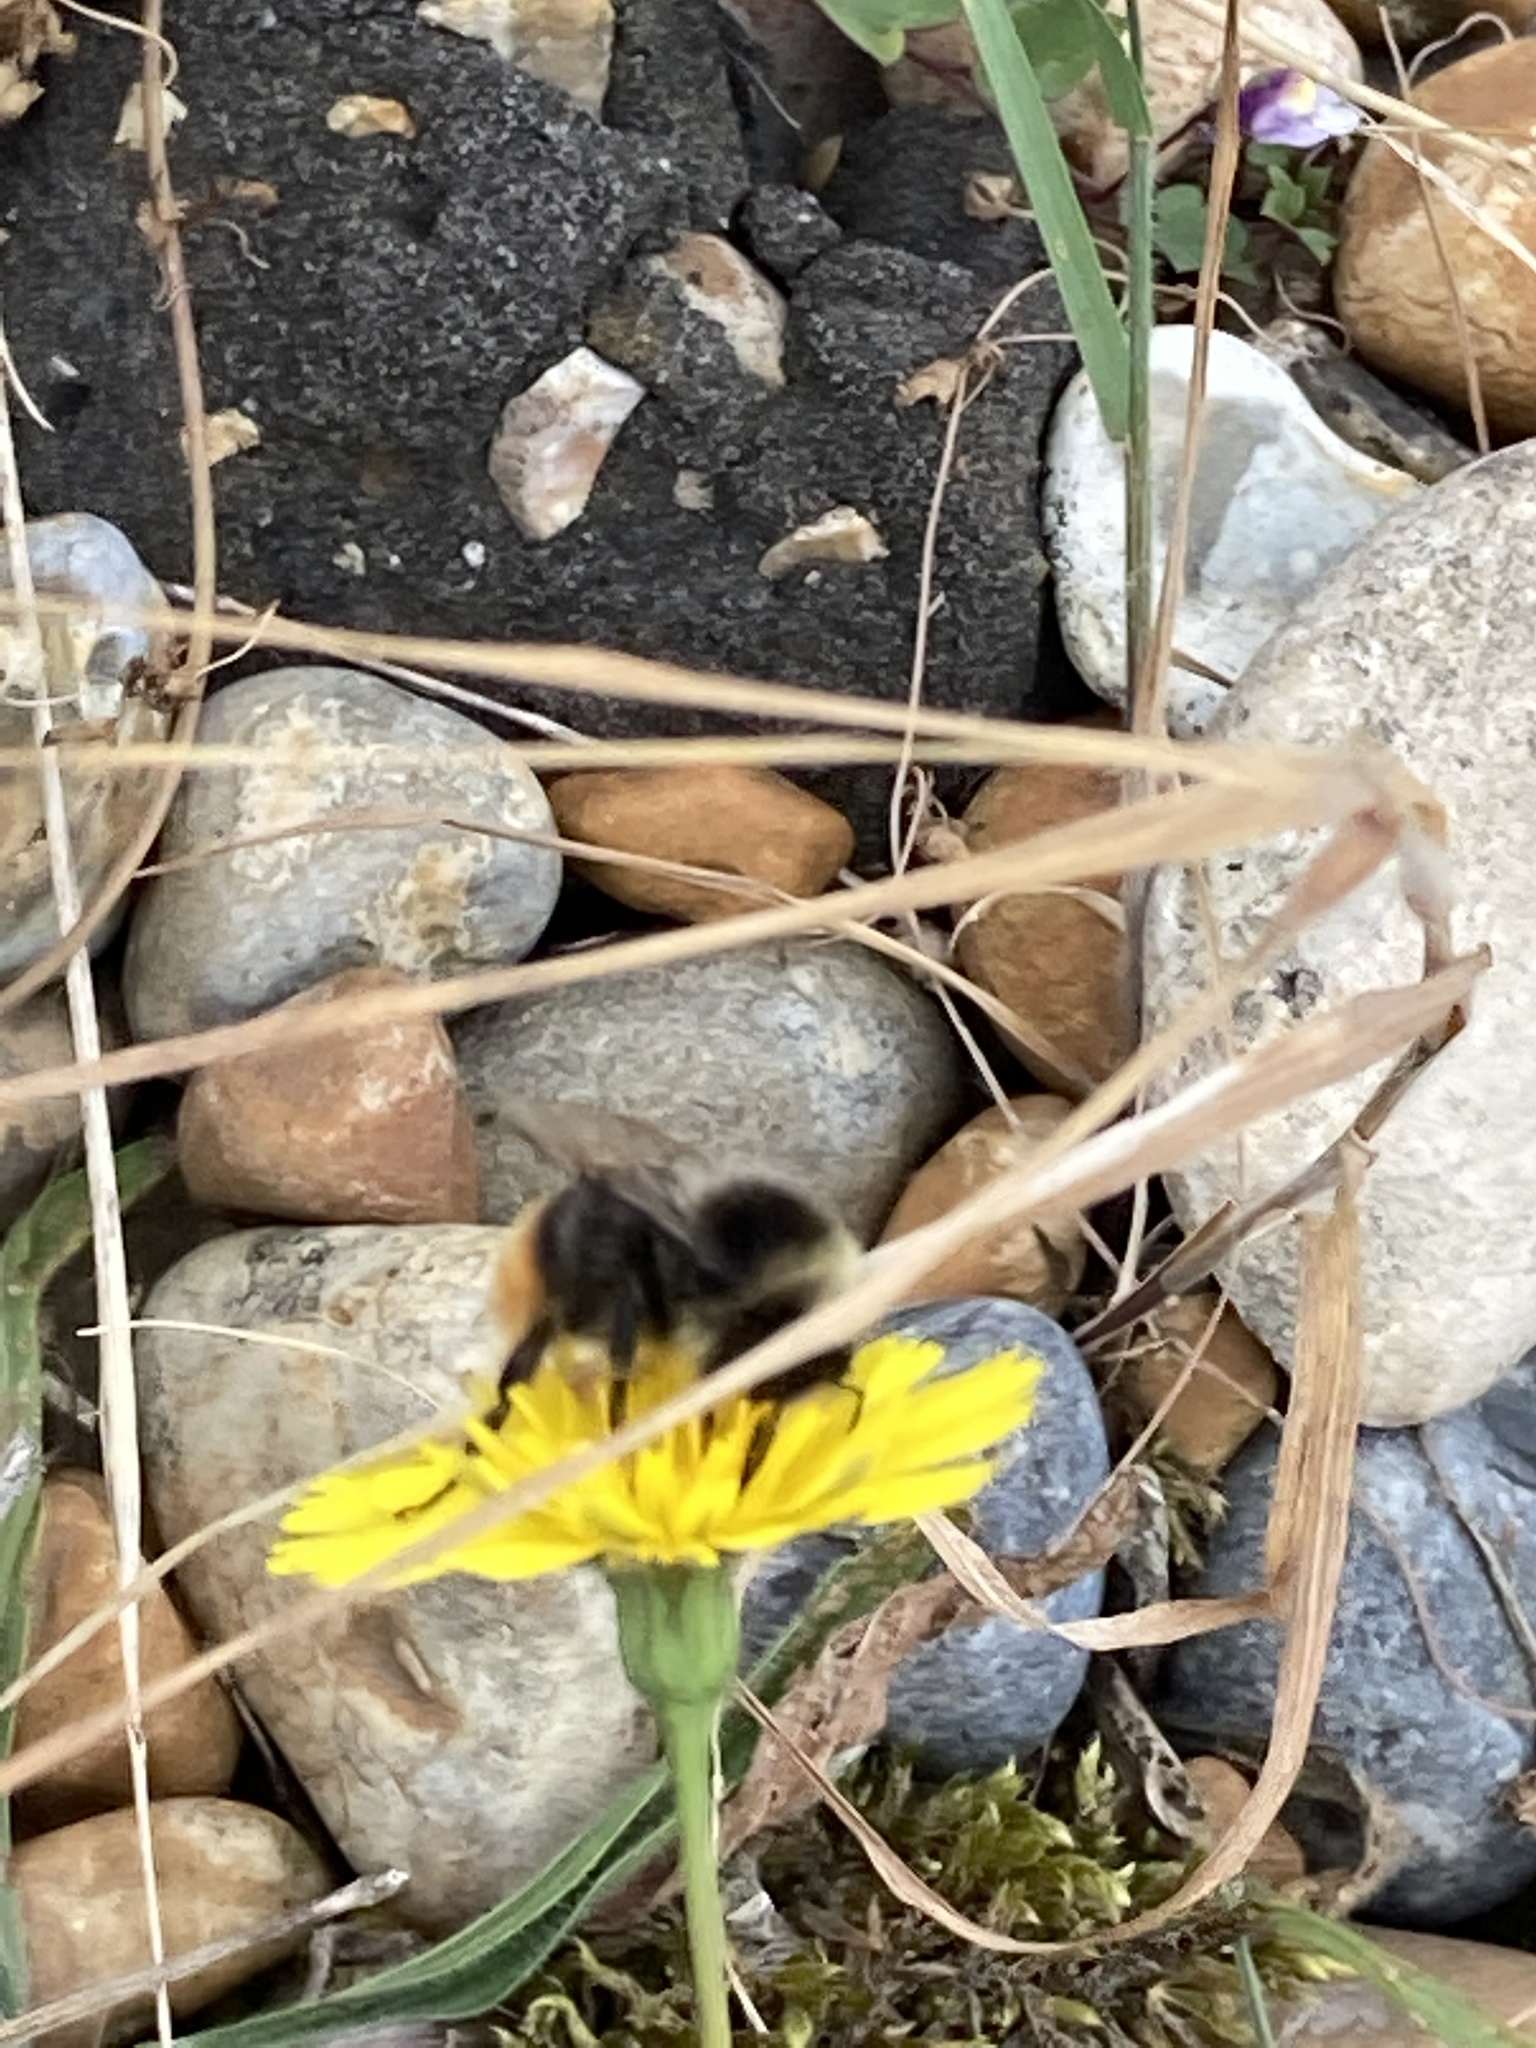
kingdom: Animalia
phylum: Arthropoda
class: Insecta
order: Hymenoptera
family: Apidae
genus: Bombus
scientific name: Bombus lapidarius
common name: Large red-tailed humble-bee
